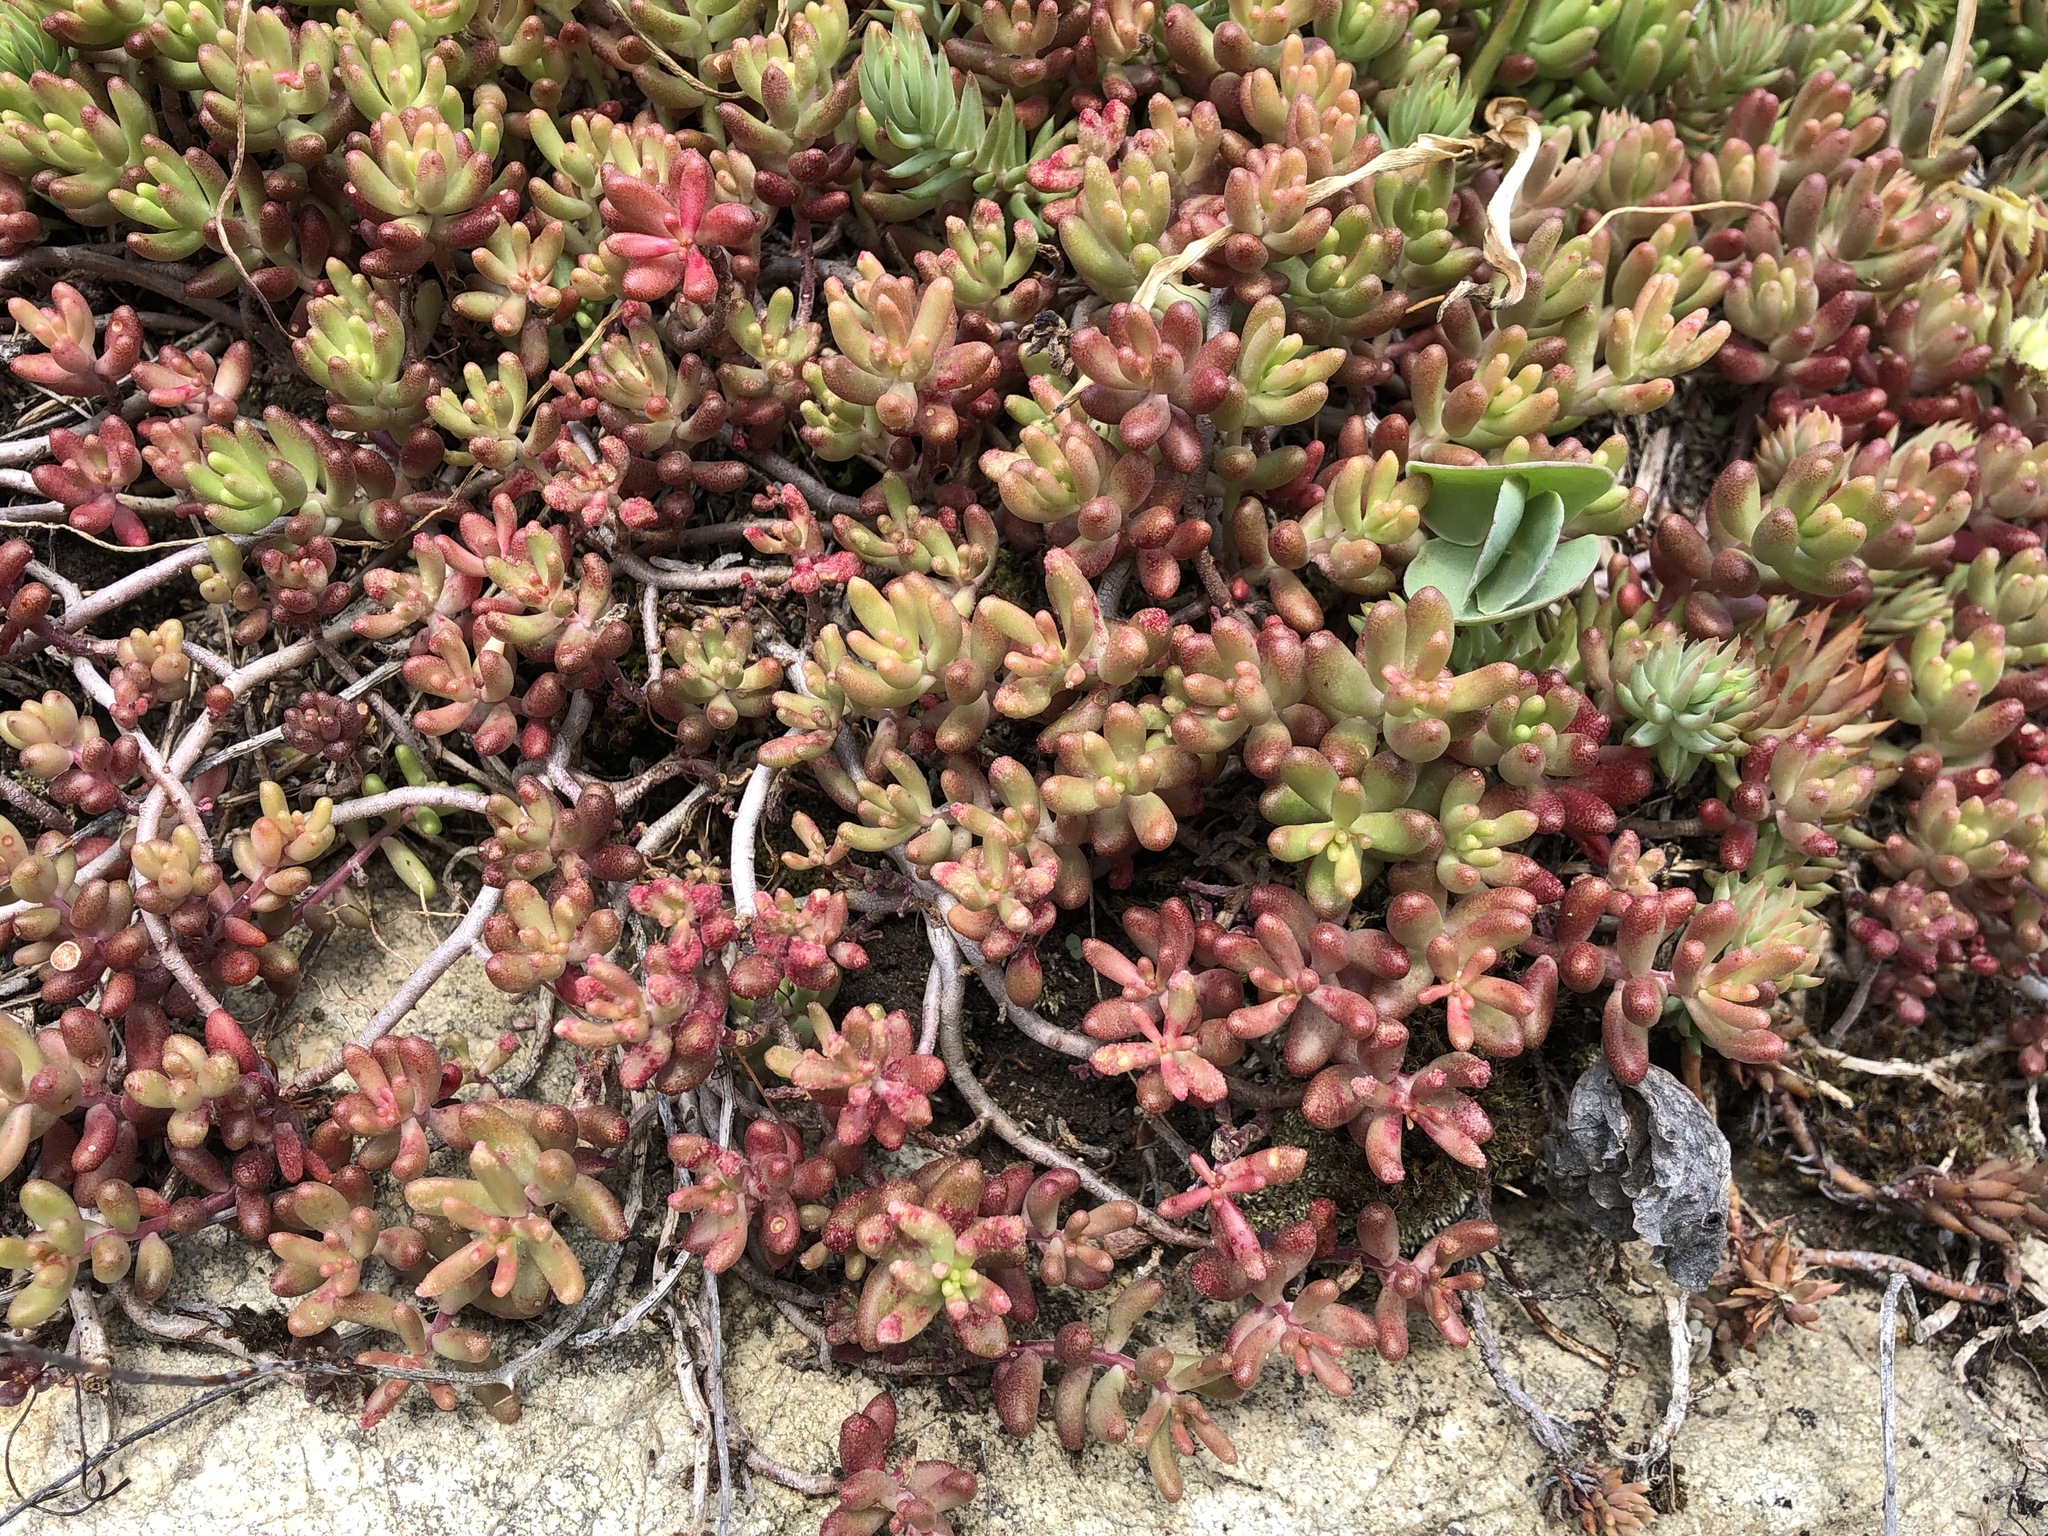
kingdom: Plantae
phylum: Tracheophyta
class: Magnoliopsida
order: Saxifragales
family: Crassulaceae
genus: Sedum
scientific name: Sedum album
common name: White stonecrop
